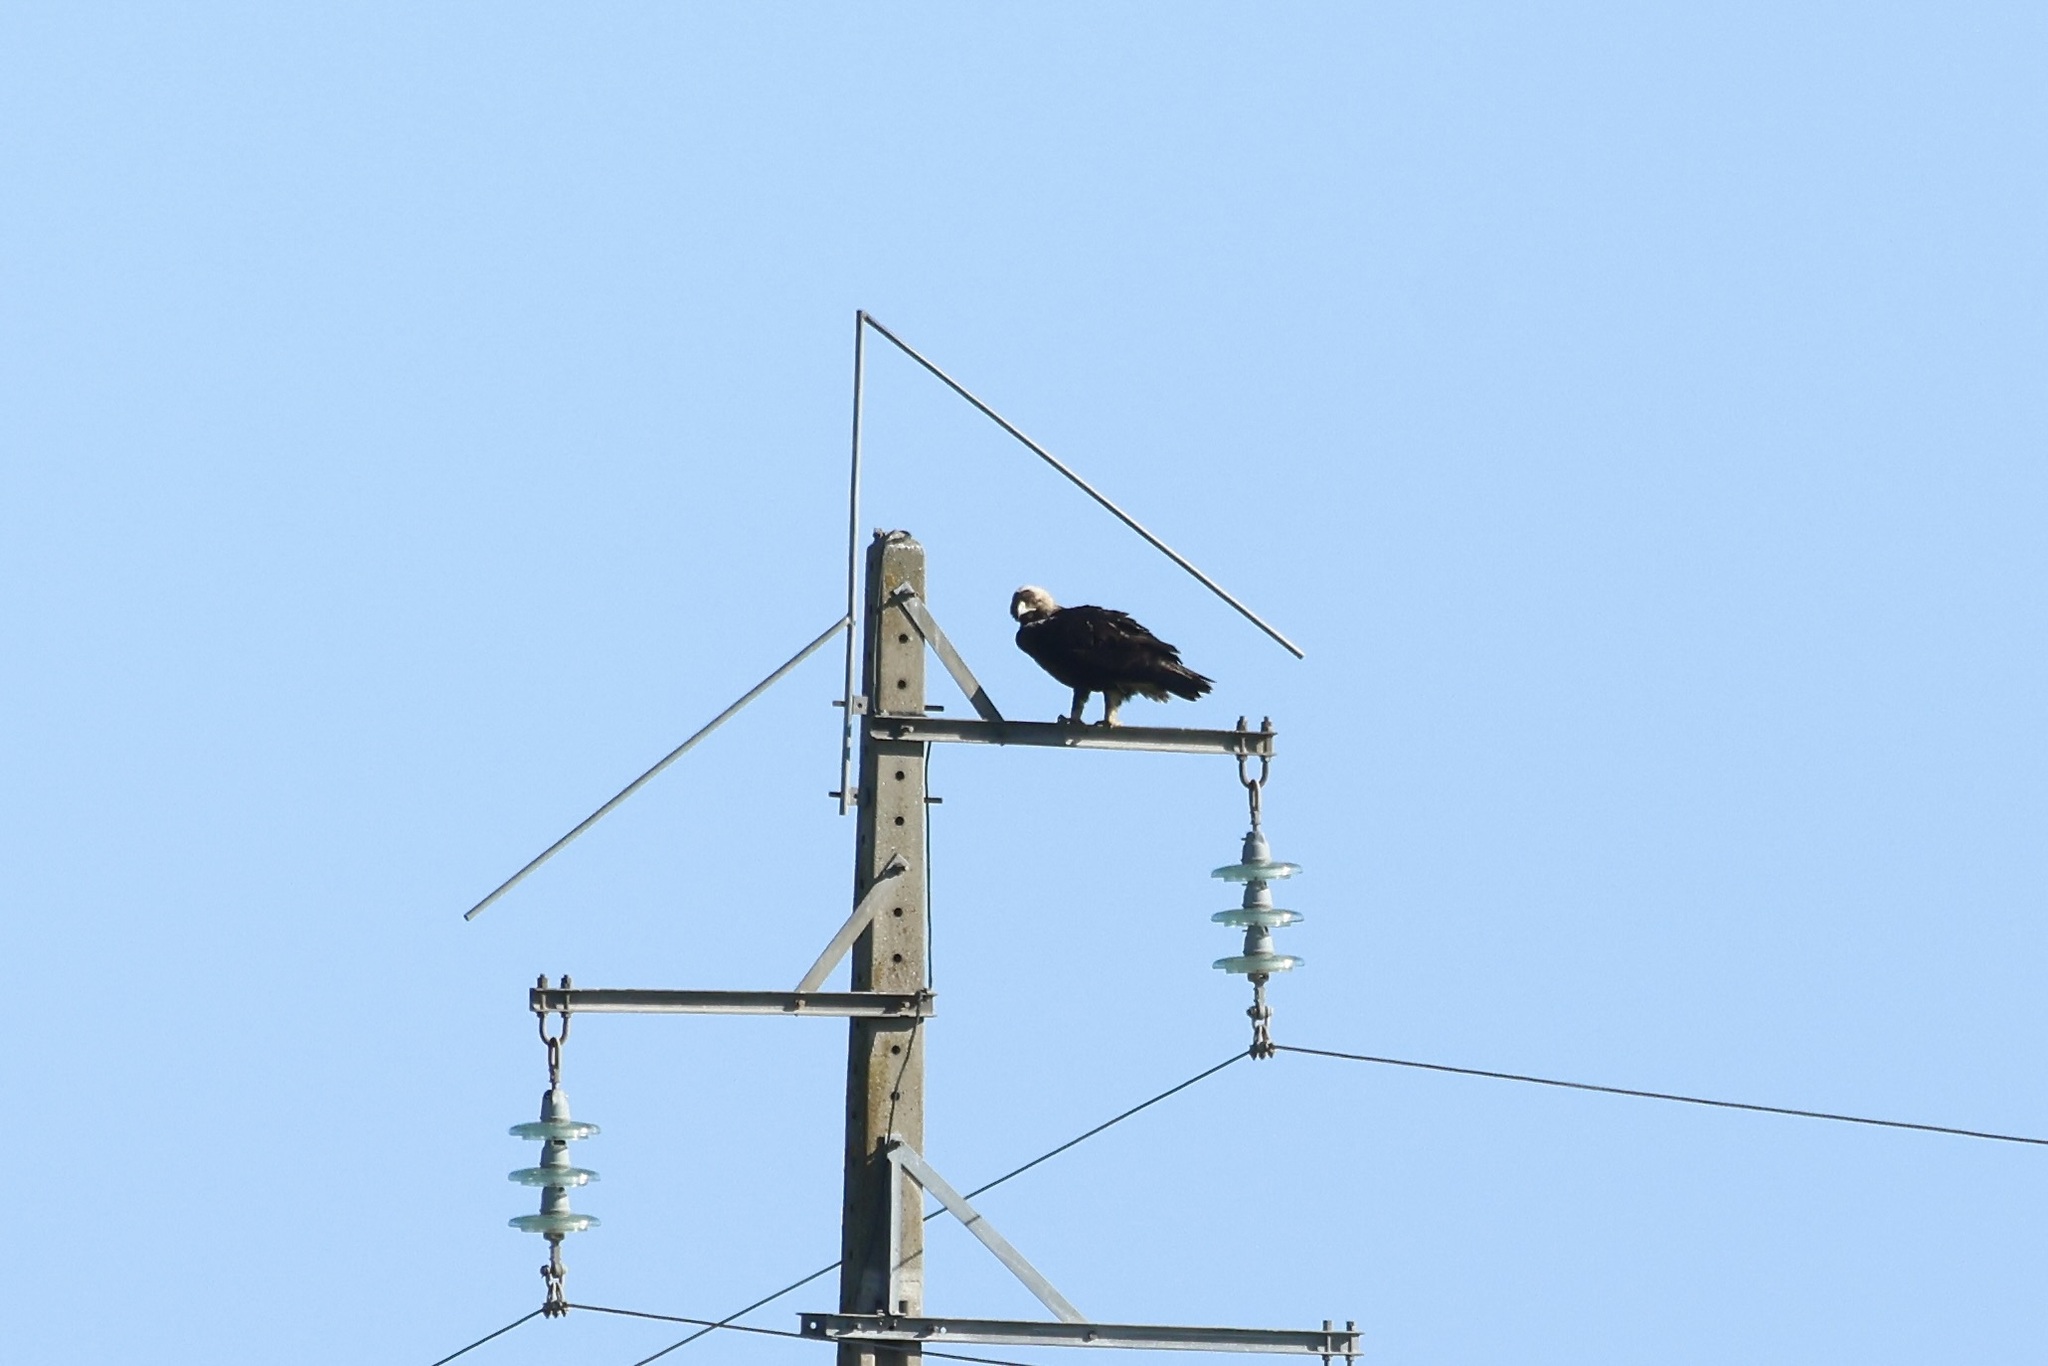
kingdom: Animalia
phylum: Chordata
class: Aves
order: Accipitriformes
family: Accipitridae
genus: Aquila
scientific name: Aquila adalberti
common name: Spanish imperial eagle
